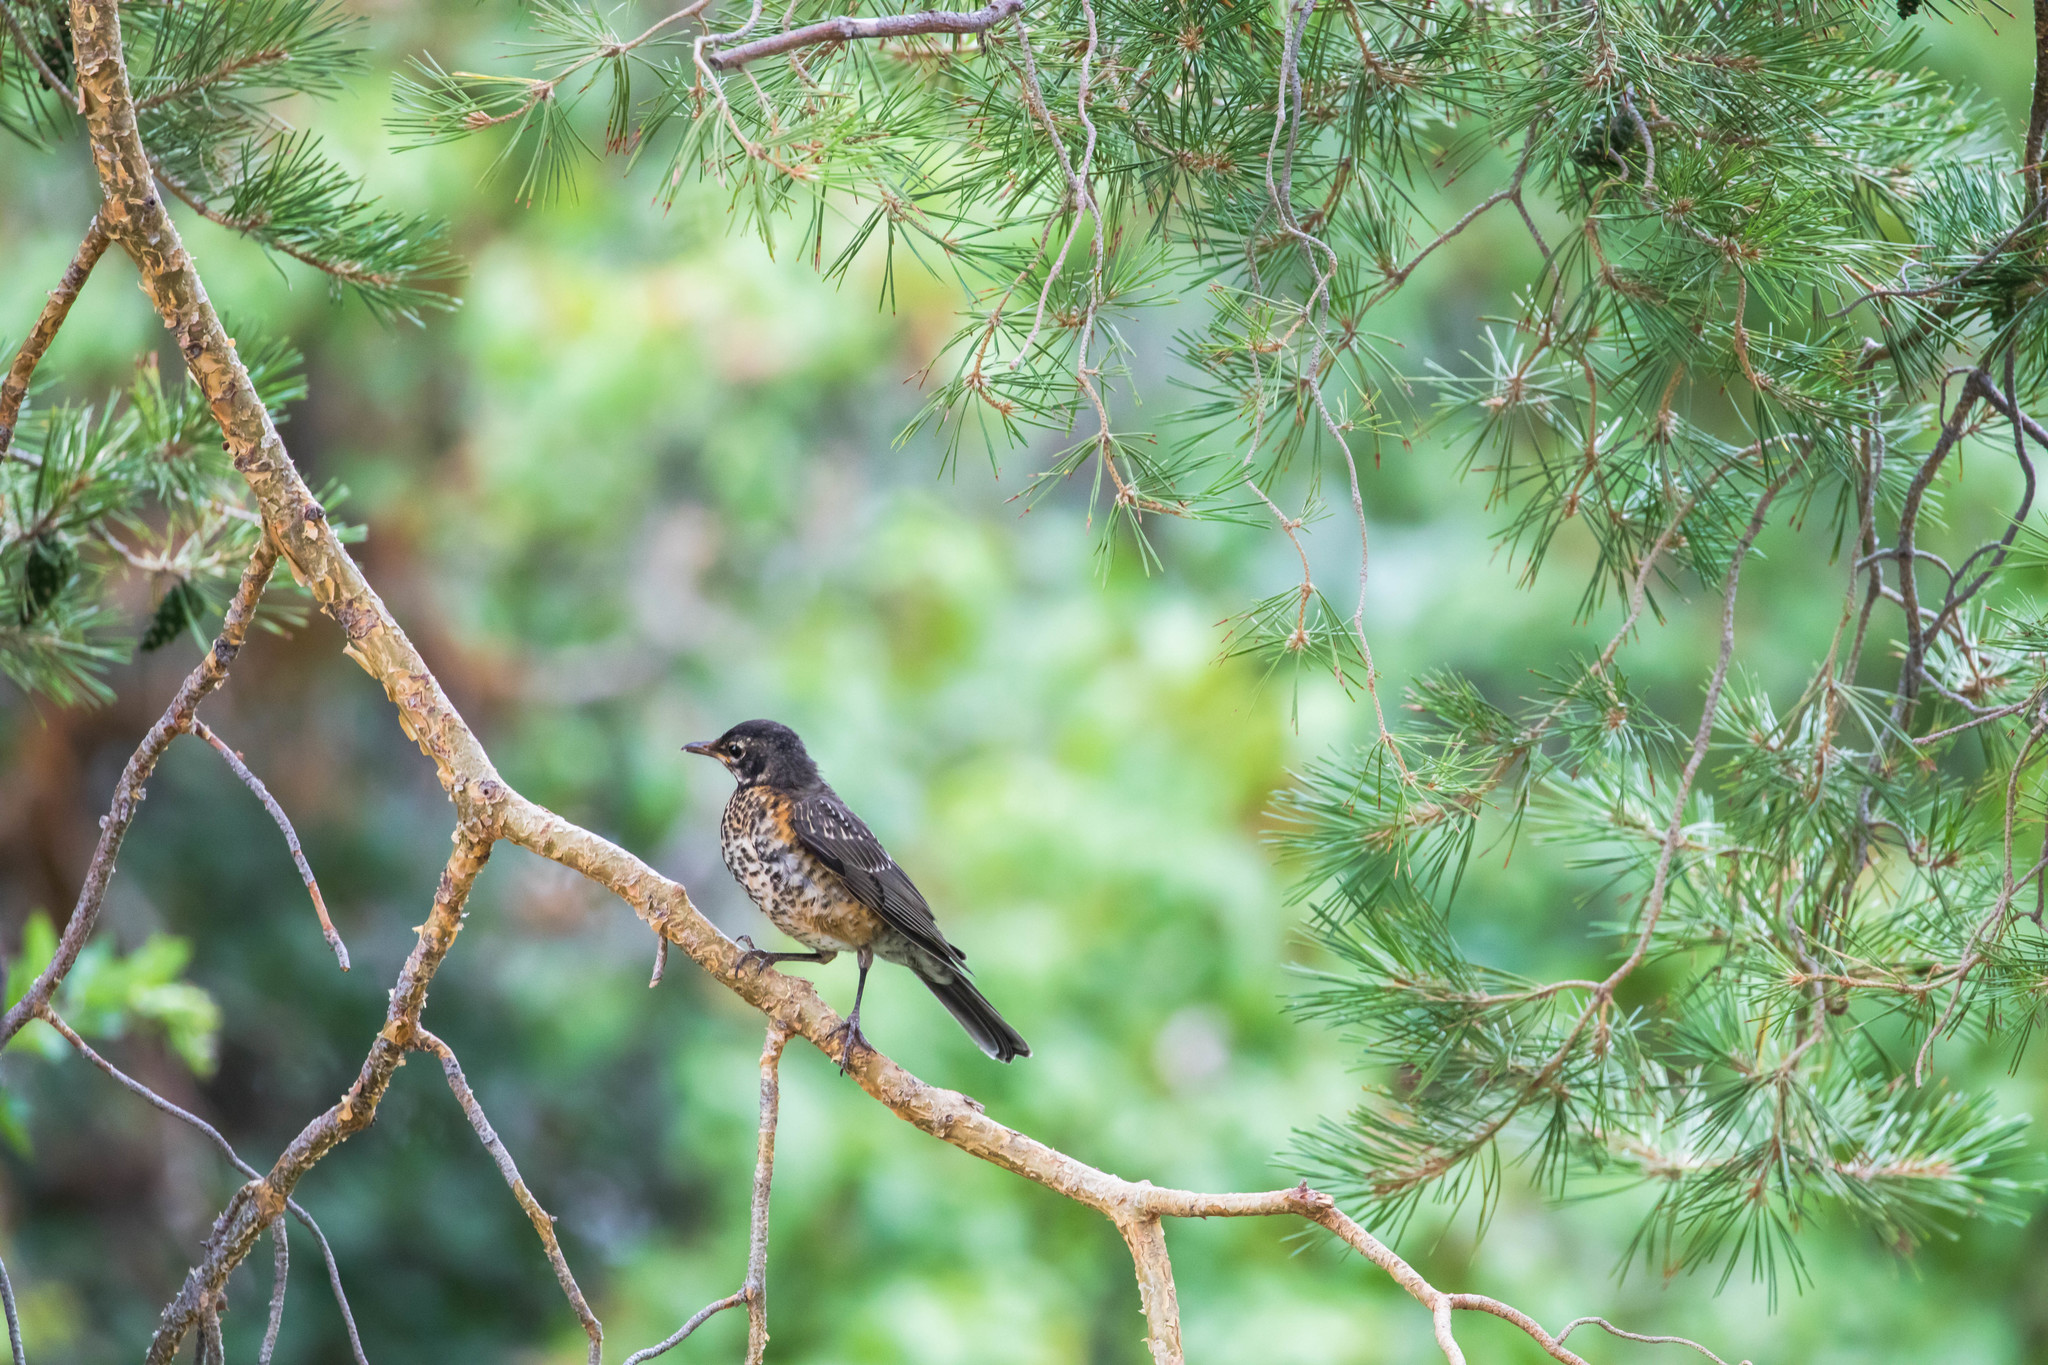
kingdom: Animalia
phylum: Chordata
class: Aves
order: Passeriformes
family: Turdidae
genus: Turdus
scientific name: Turdus migratorius
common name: American robin
